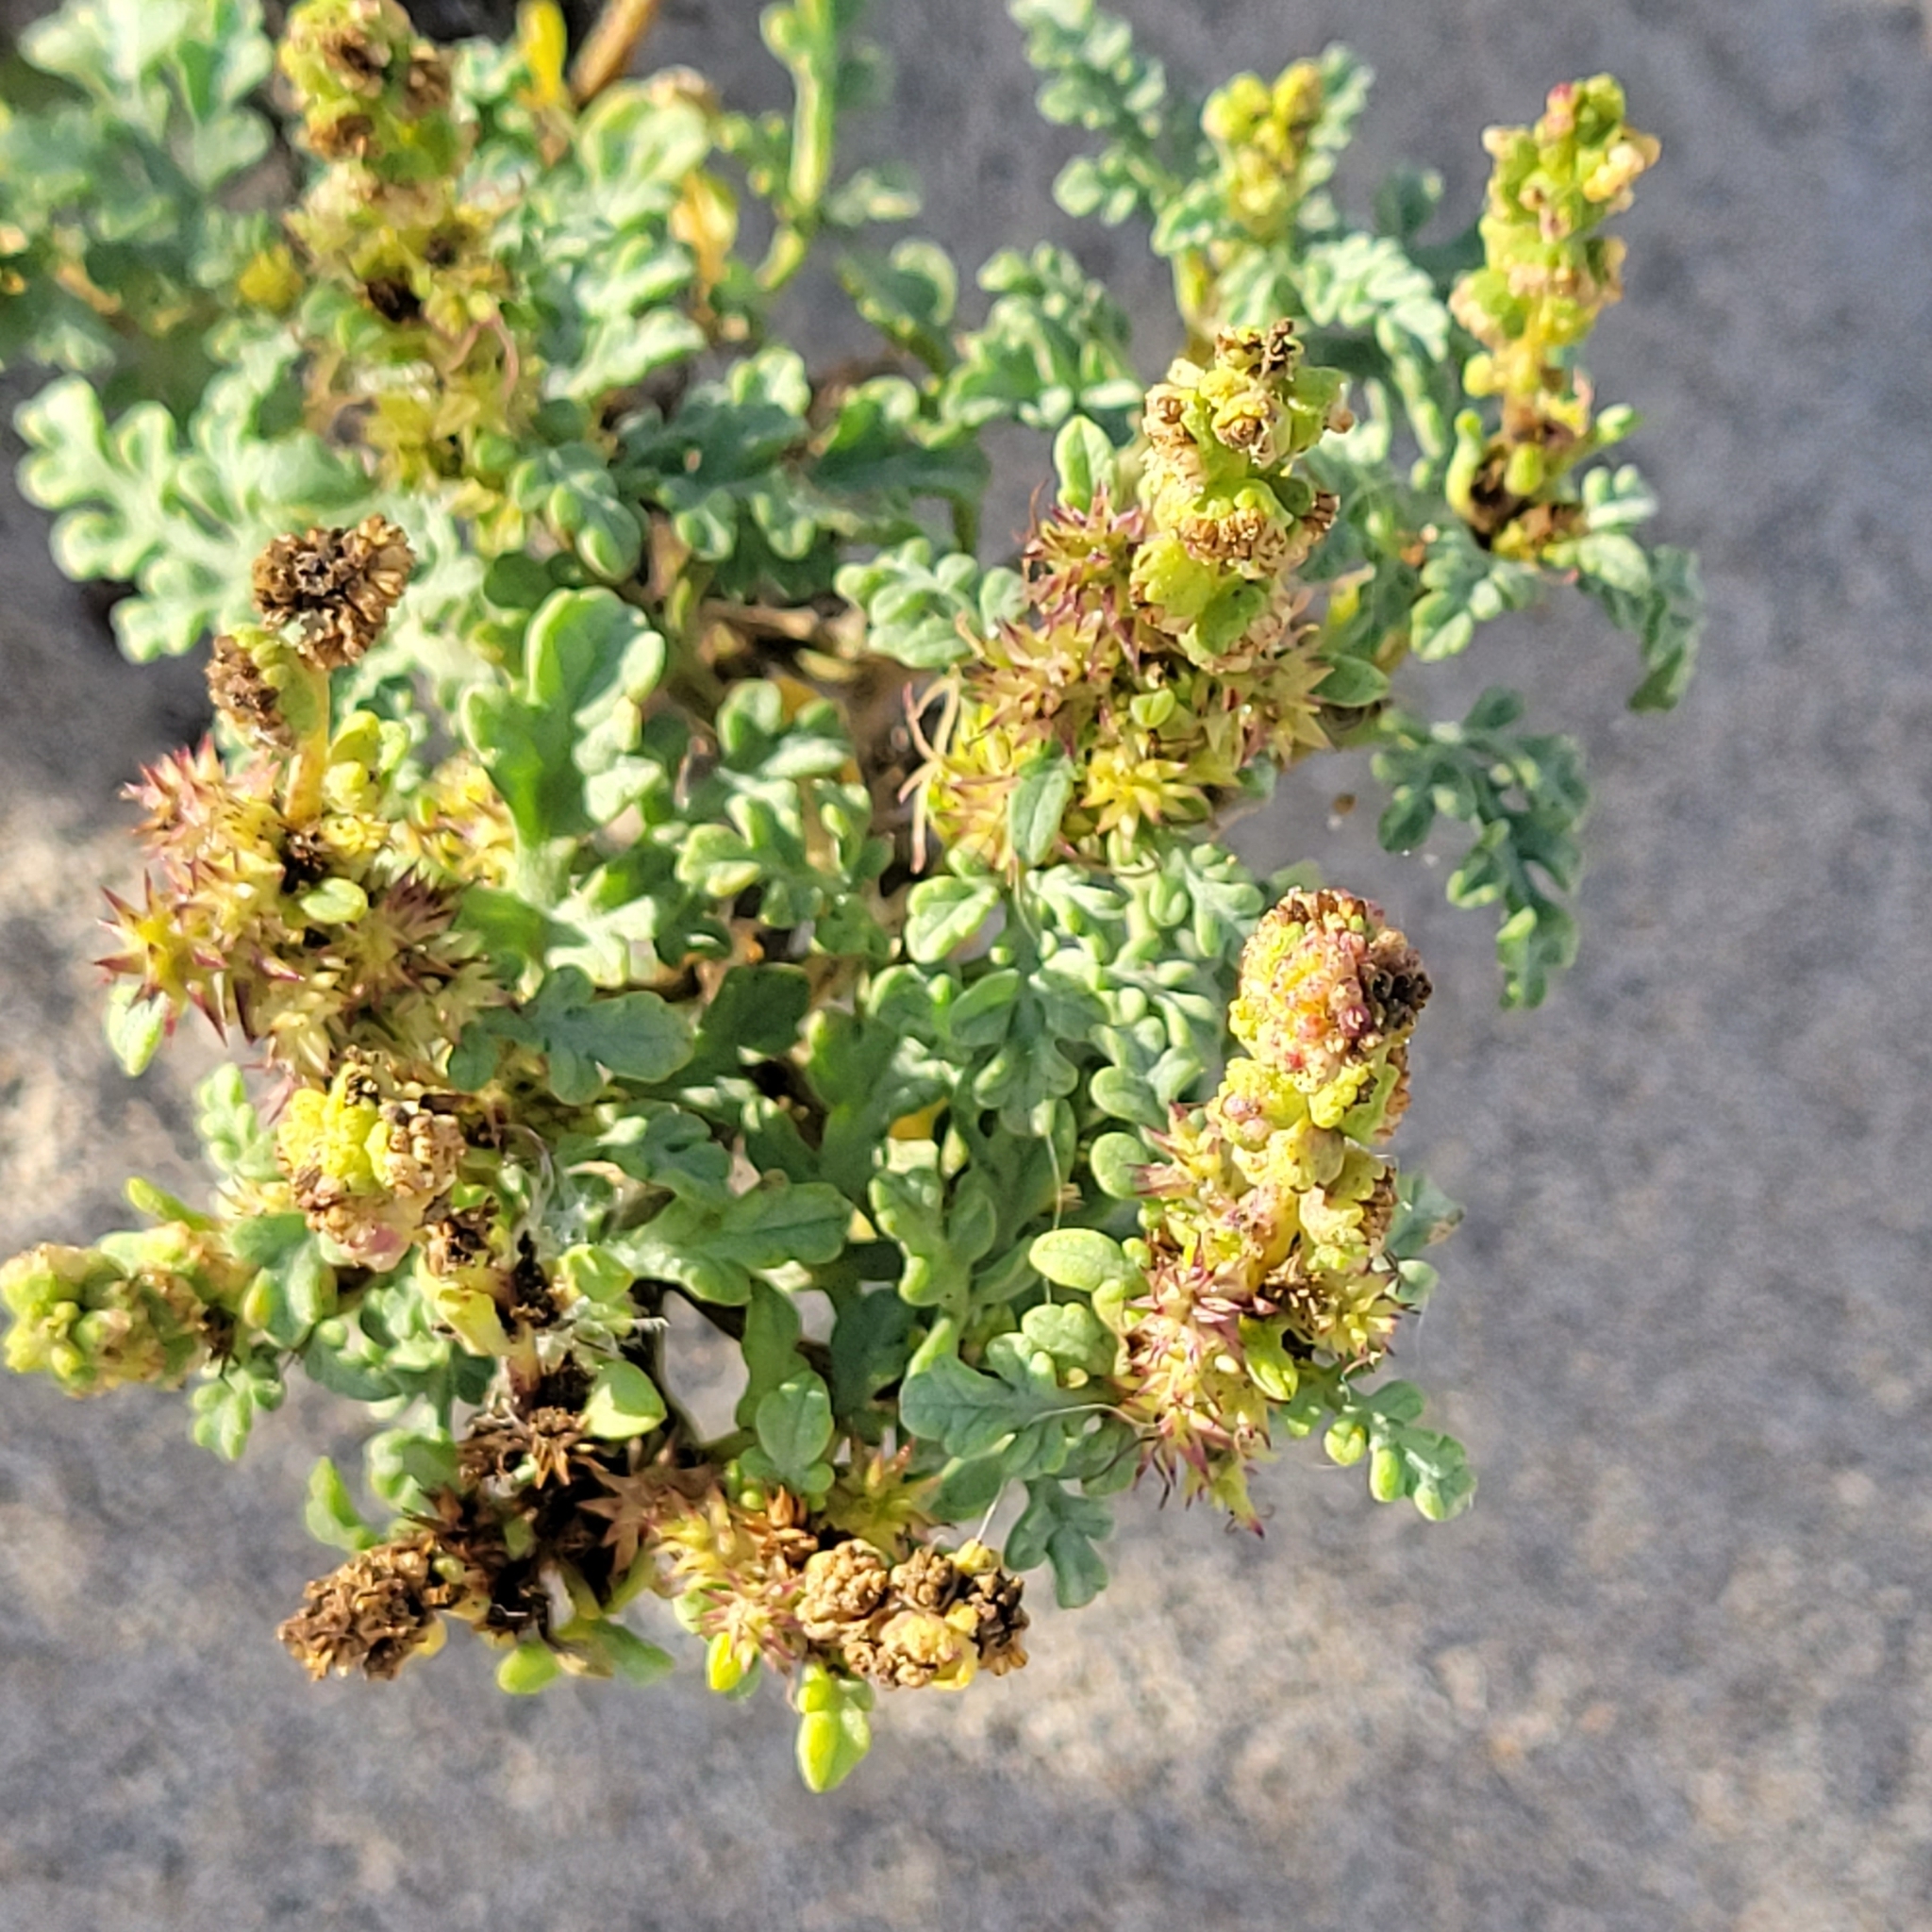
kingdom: Plantae
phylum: Tracheophyta
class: Magnoliopsida
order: Asterales
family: Asteraceae
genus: Ambrosia
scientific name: Ambrosia chamissonis
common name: Beachbur
